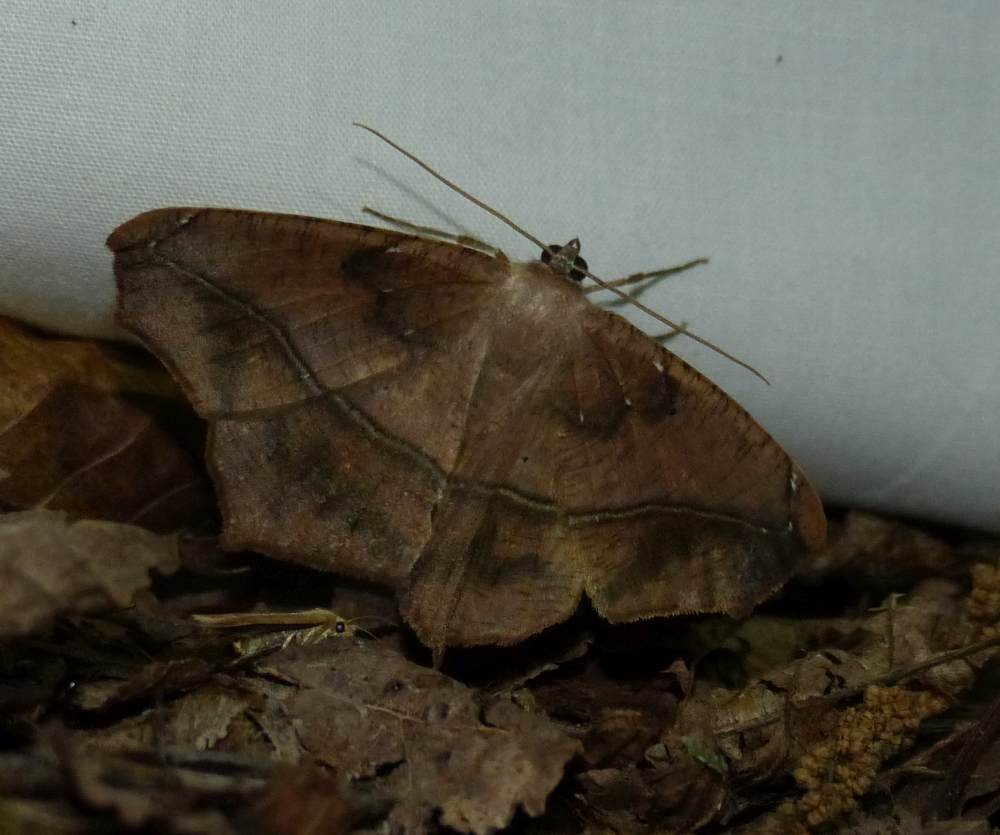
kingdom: Animalia
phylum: Arthropoda
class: Insecta
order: Lepidoptera
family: Geometridae
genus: Prochoerodes
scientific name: Prochoerodes lineola
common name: Large maple spanworm
